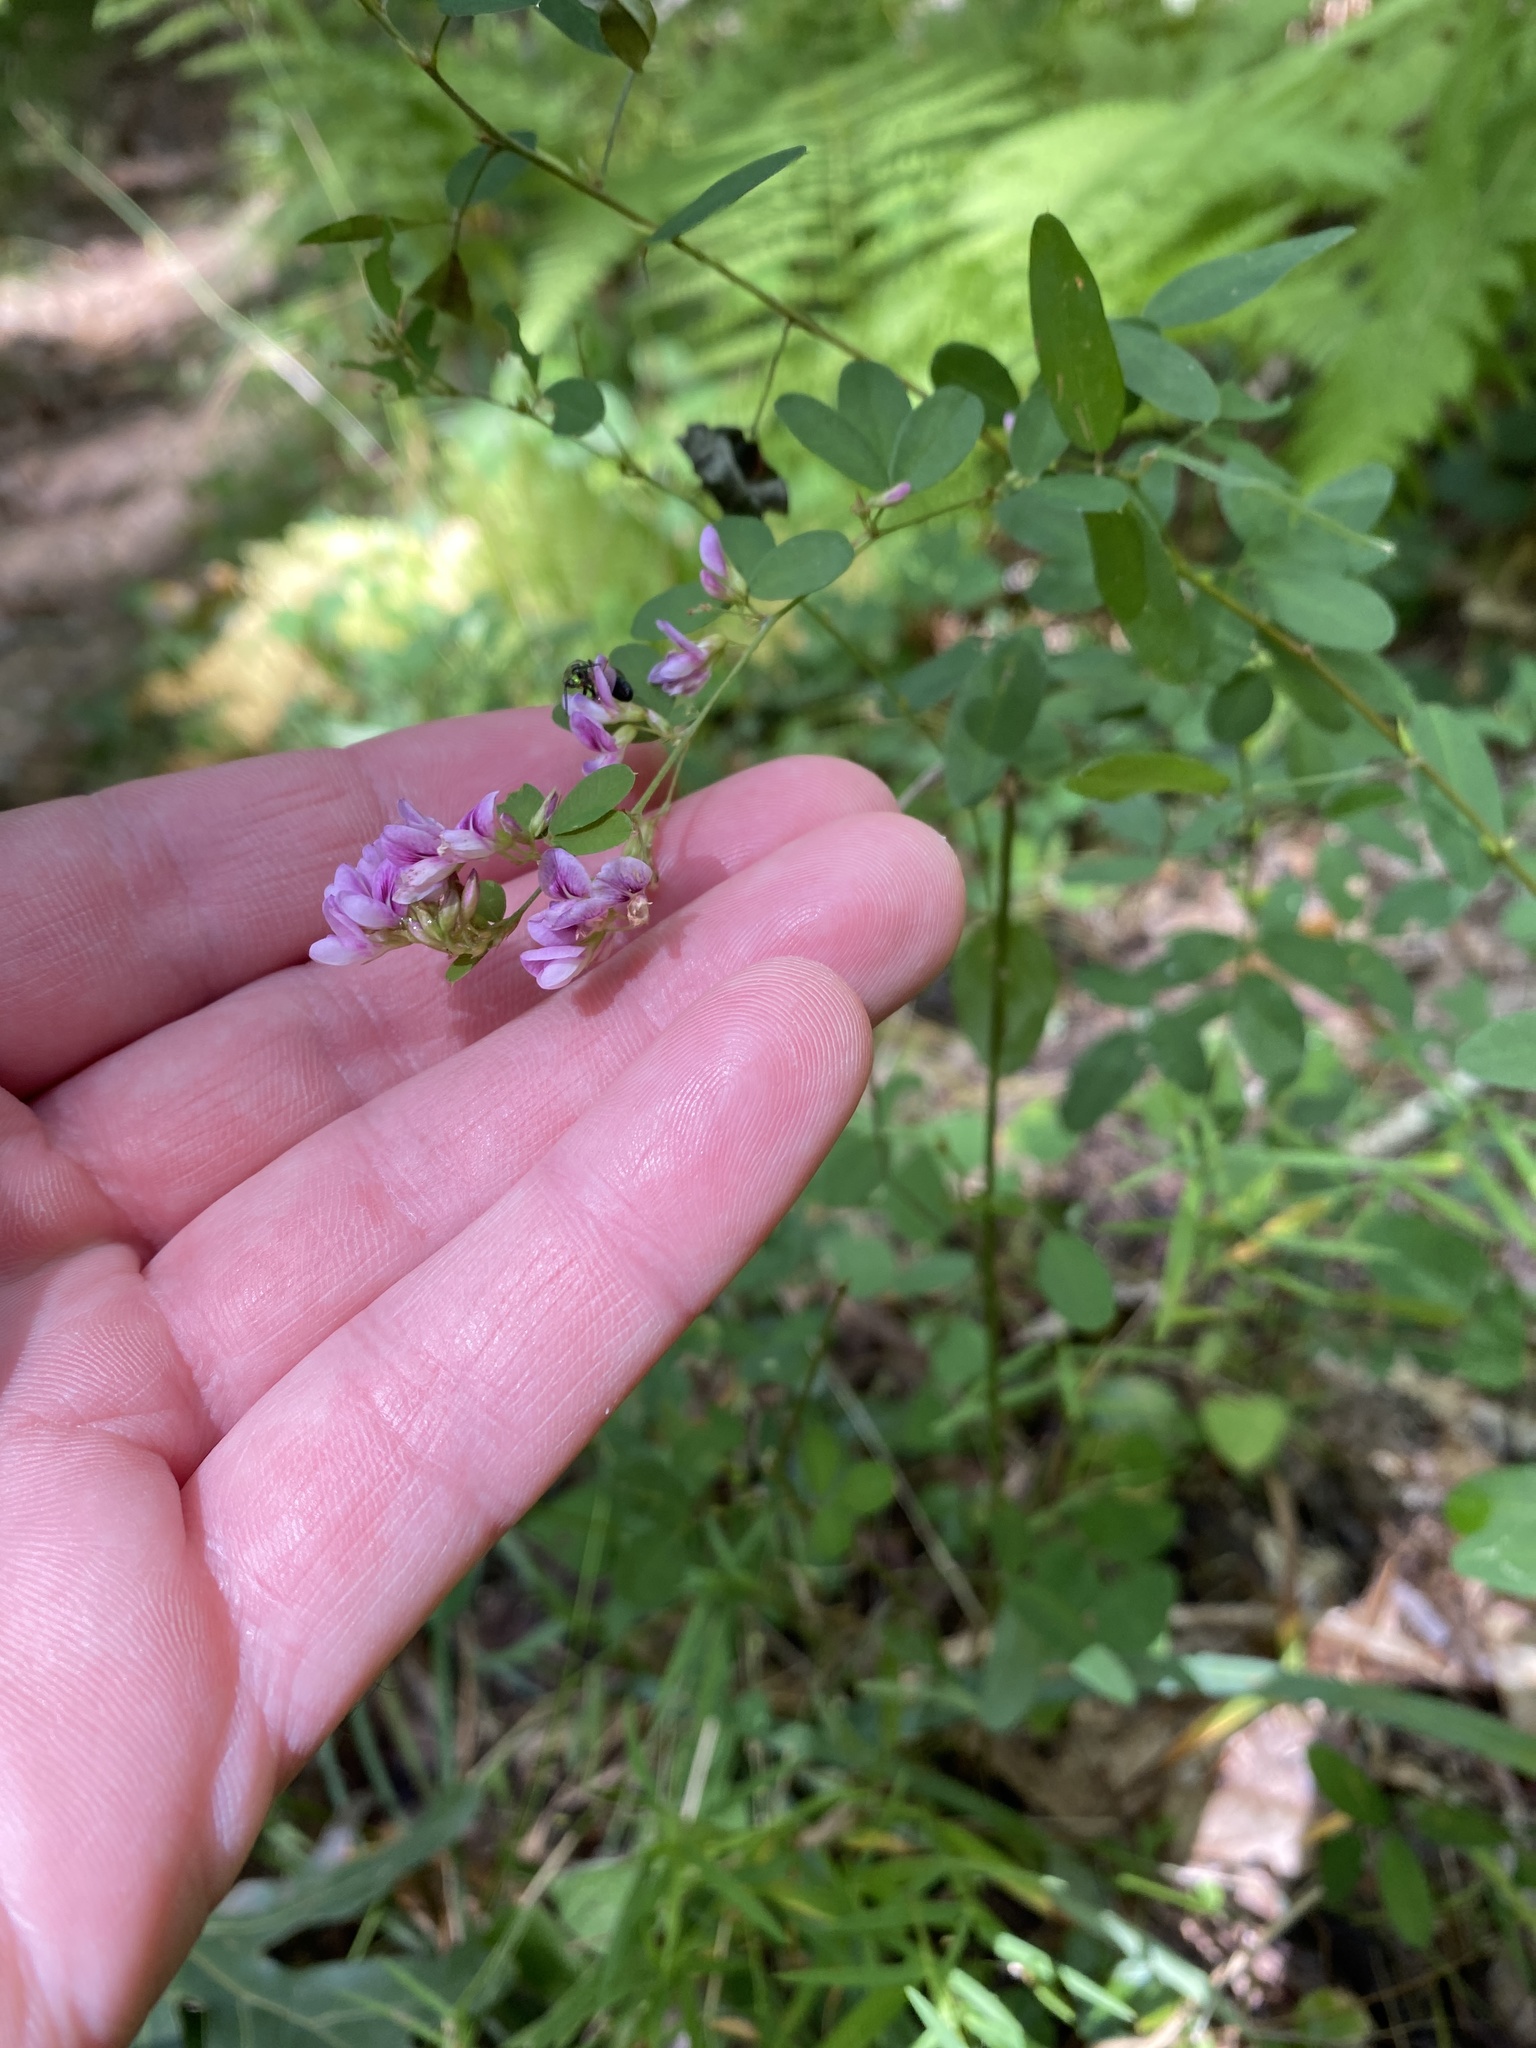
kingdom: Plantae
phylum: Tracheophyta
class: Magnoliopsida
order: Fabales
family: Fabaceae
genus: Lespedeza
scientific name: Lespedeza violacea
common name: Wand bush-clover
